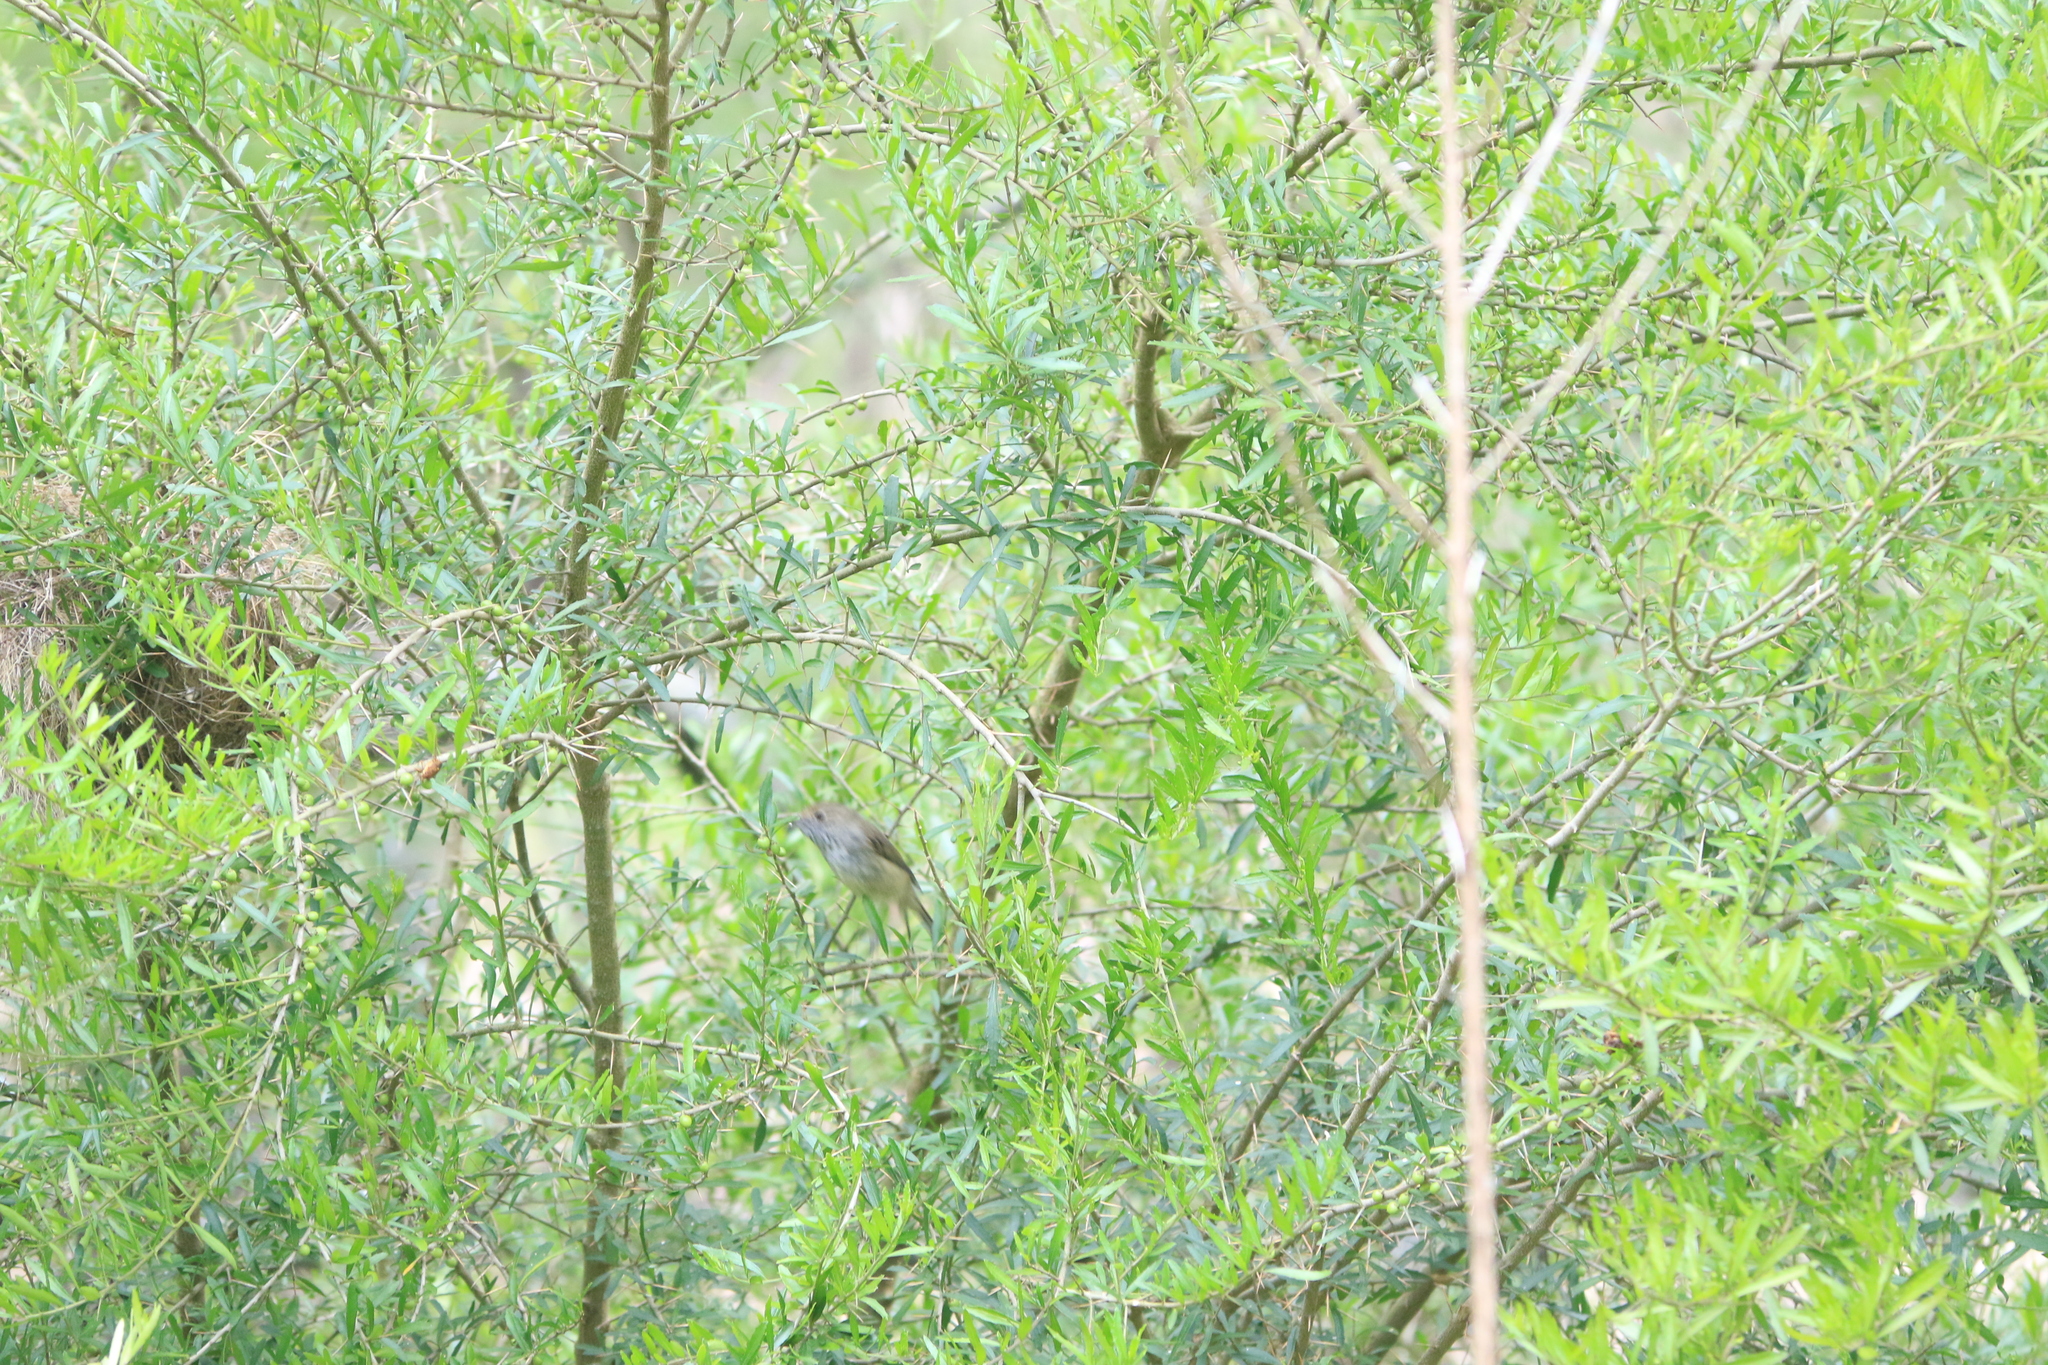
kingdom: Animalia
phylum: Chordata
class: Aves
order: Passeriformes
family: Acanthizidae
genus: Acanthiza
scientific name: Acanthiza pusilla
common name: Brown thornbill
